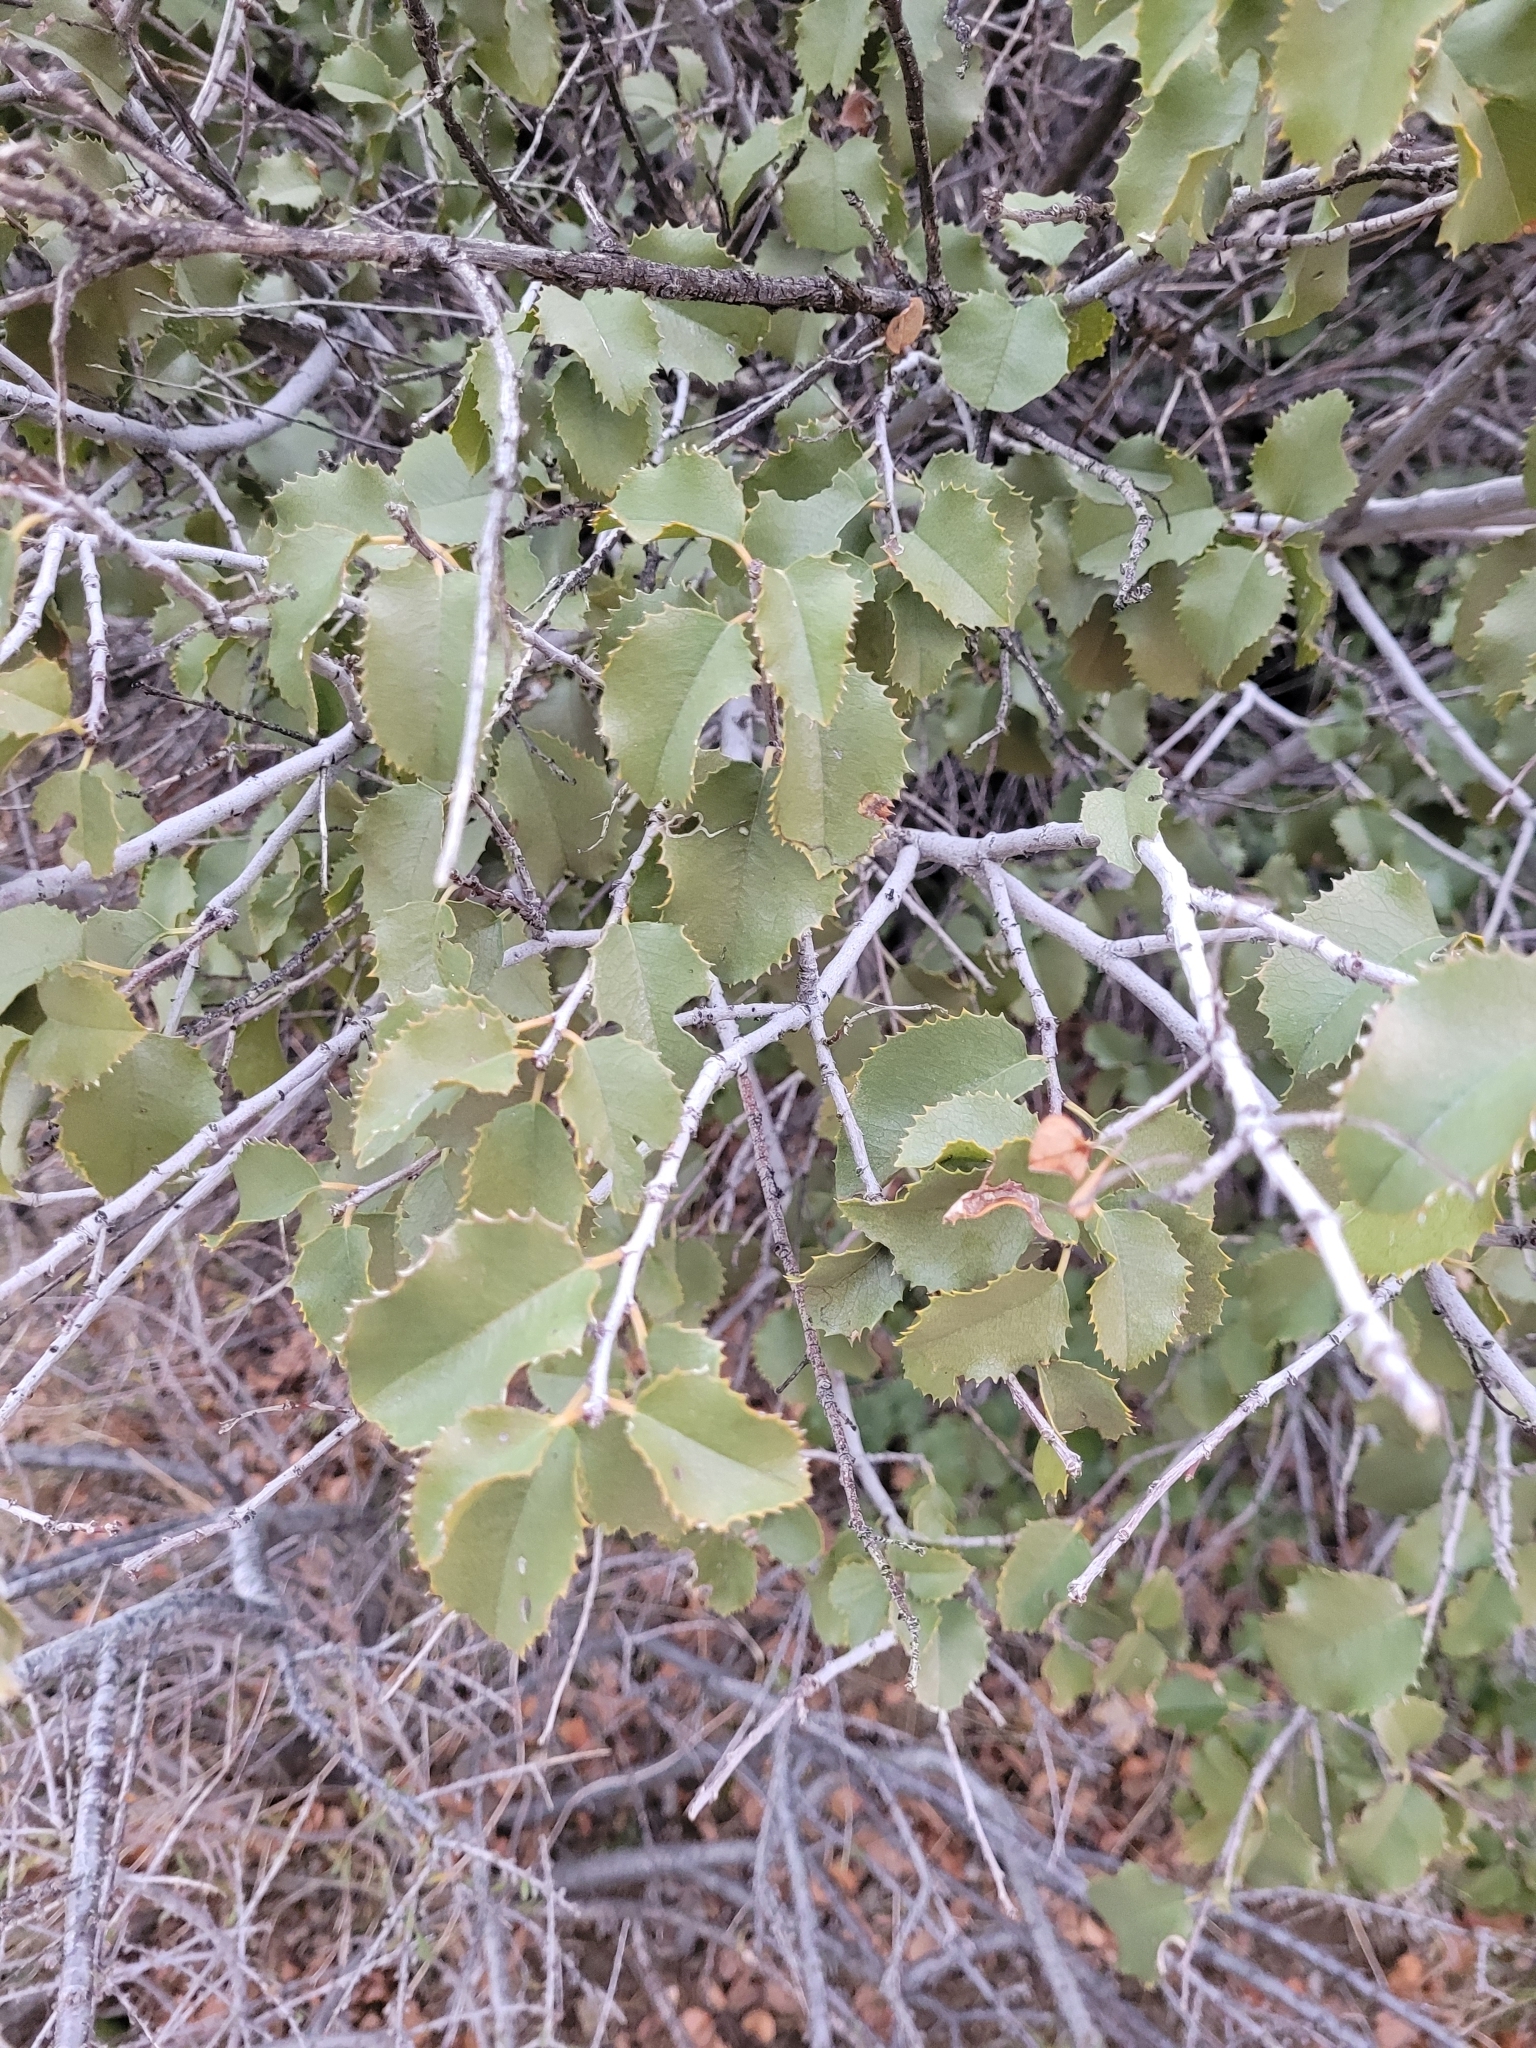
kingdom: Plantae
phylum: Tracheophyta
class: Magnoliopsida
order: Rosales
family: Rosaceae
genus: Prunus
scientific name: Prunus ilicifolia
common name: Hollyleaf cherry
